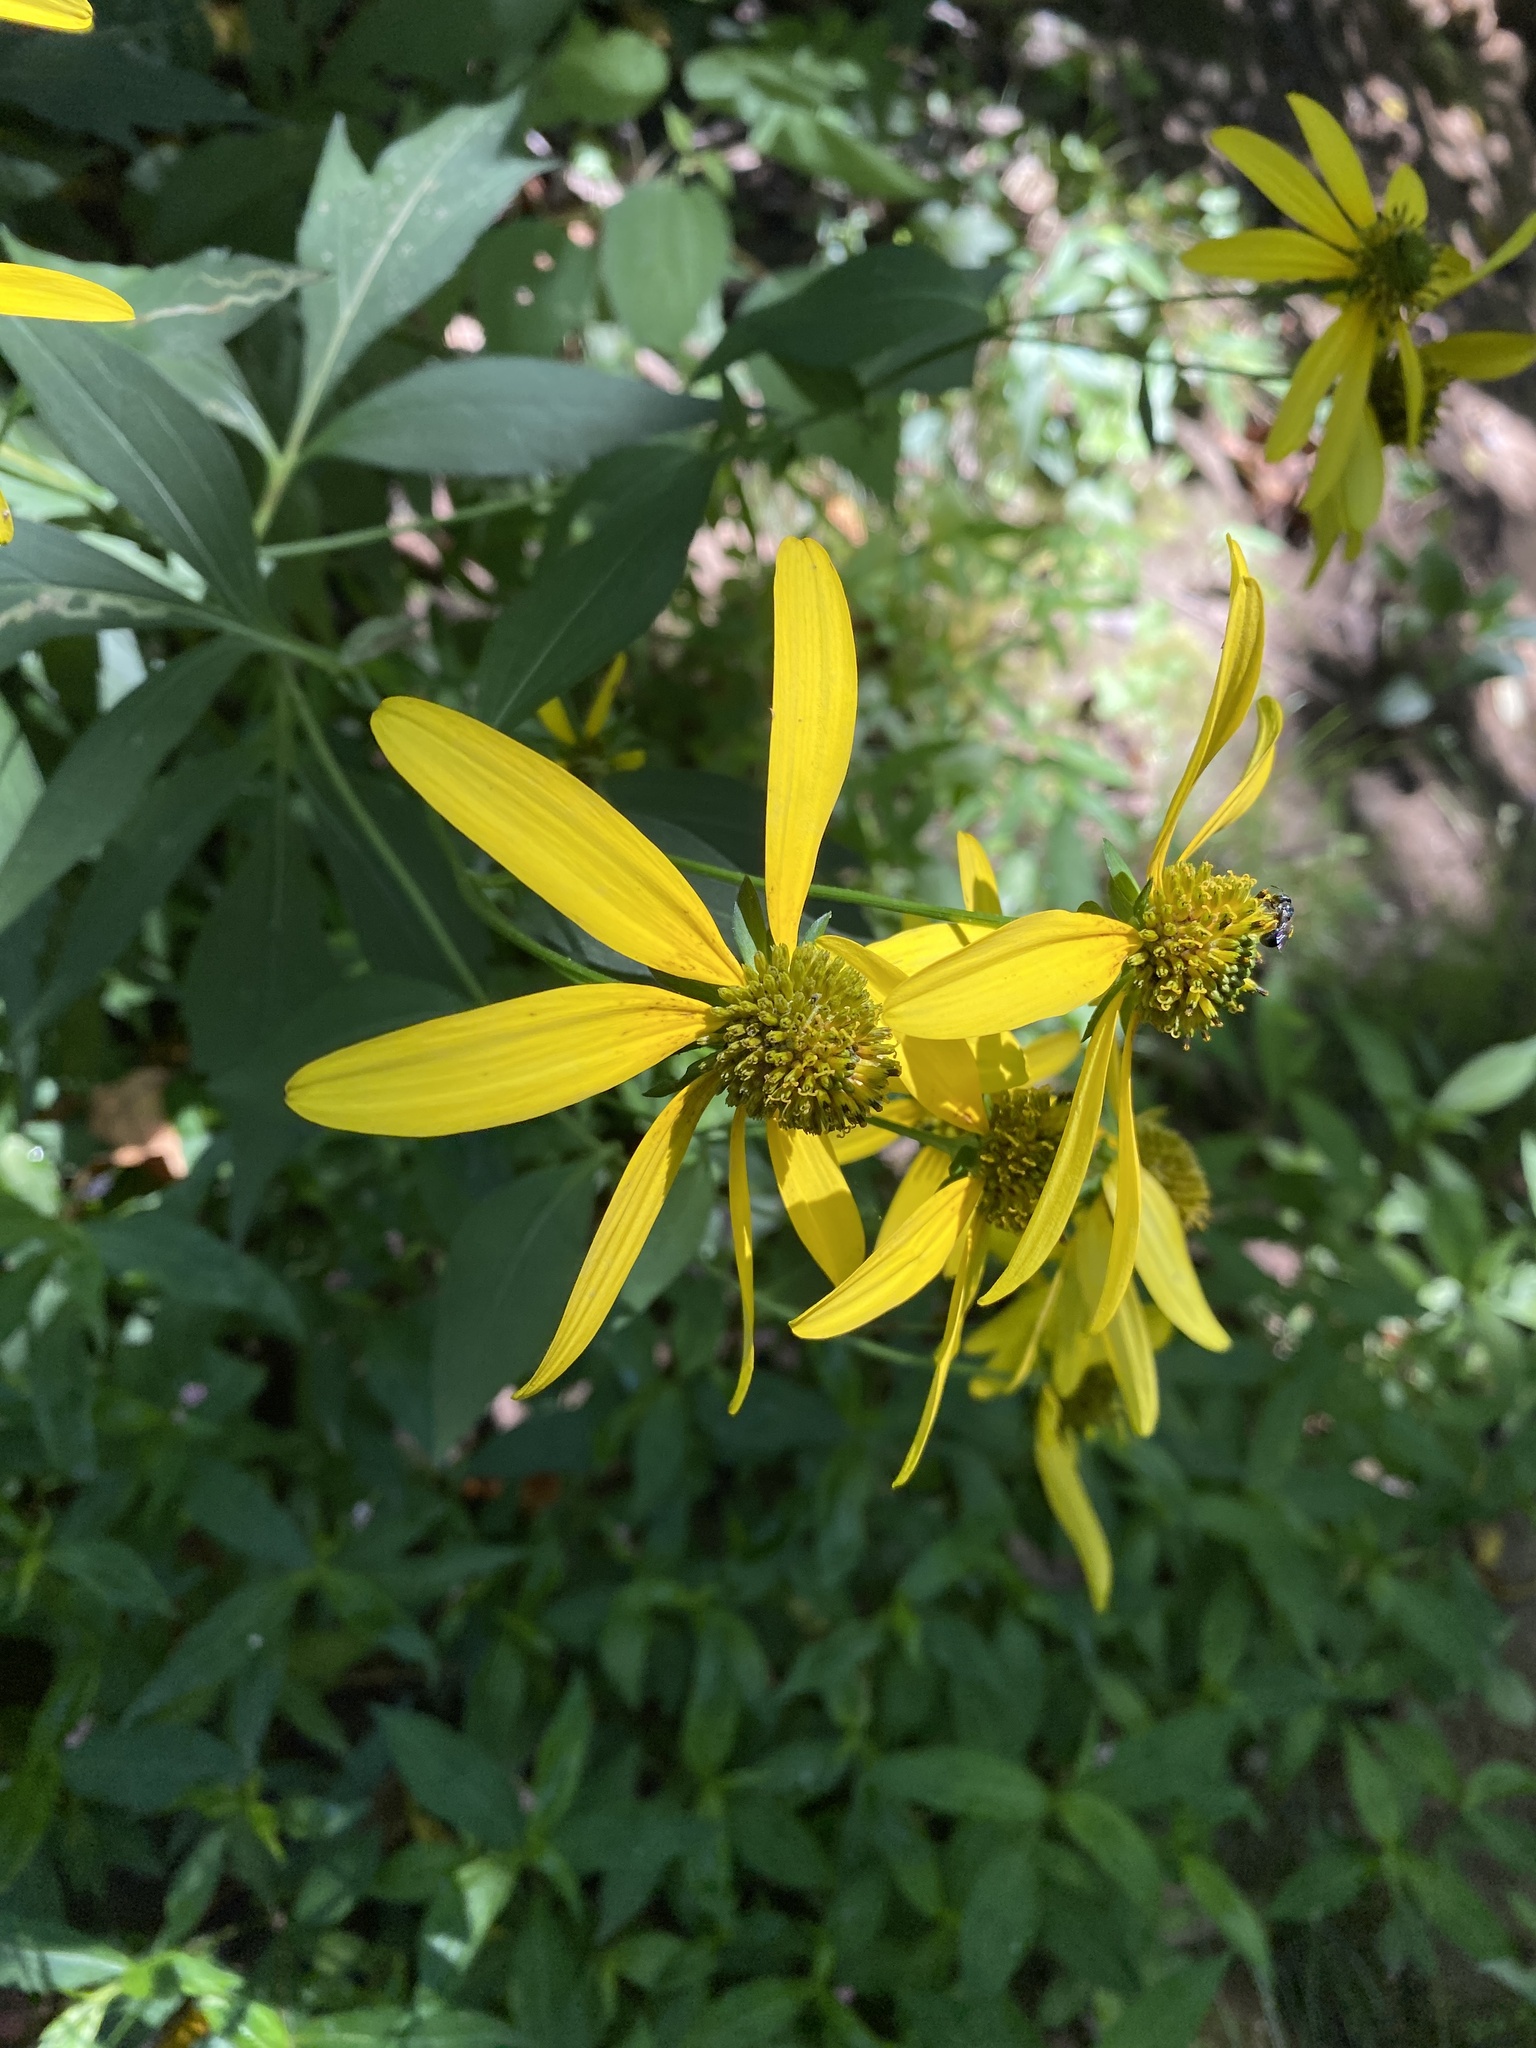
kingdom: Plantae
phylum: Tracheophyta
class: Magnoliopsida
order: Asterales
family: Asteraceae
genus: Rudbeckia
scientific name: Rudbeckia laciniata
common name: Coneflower
